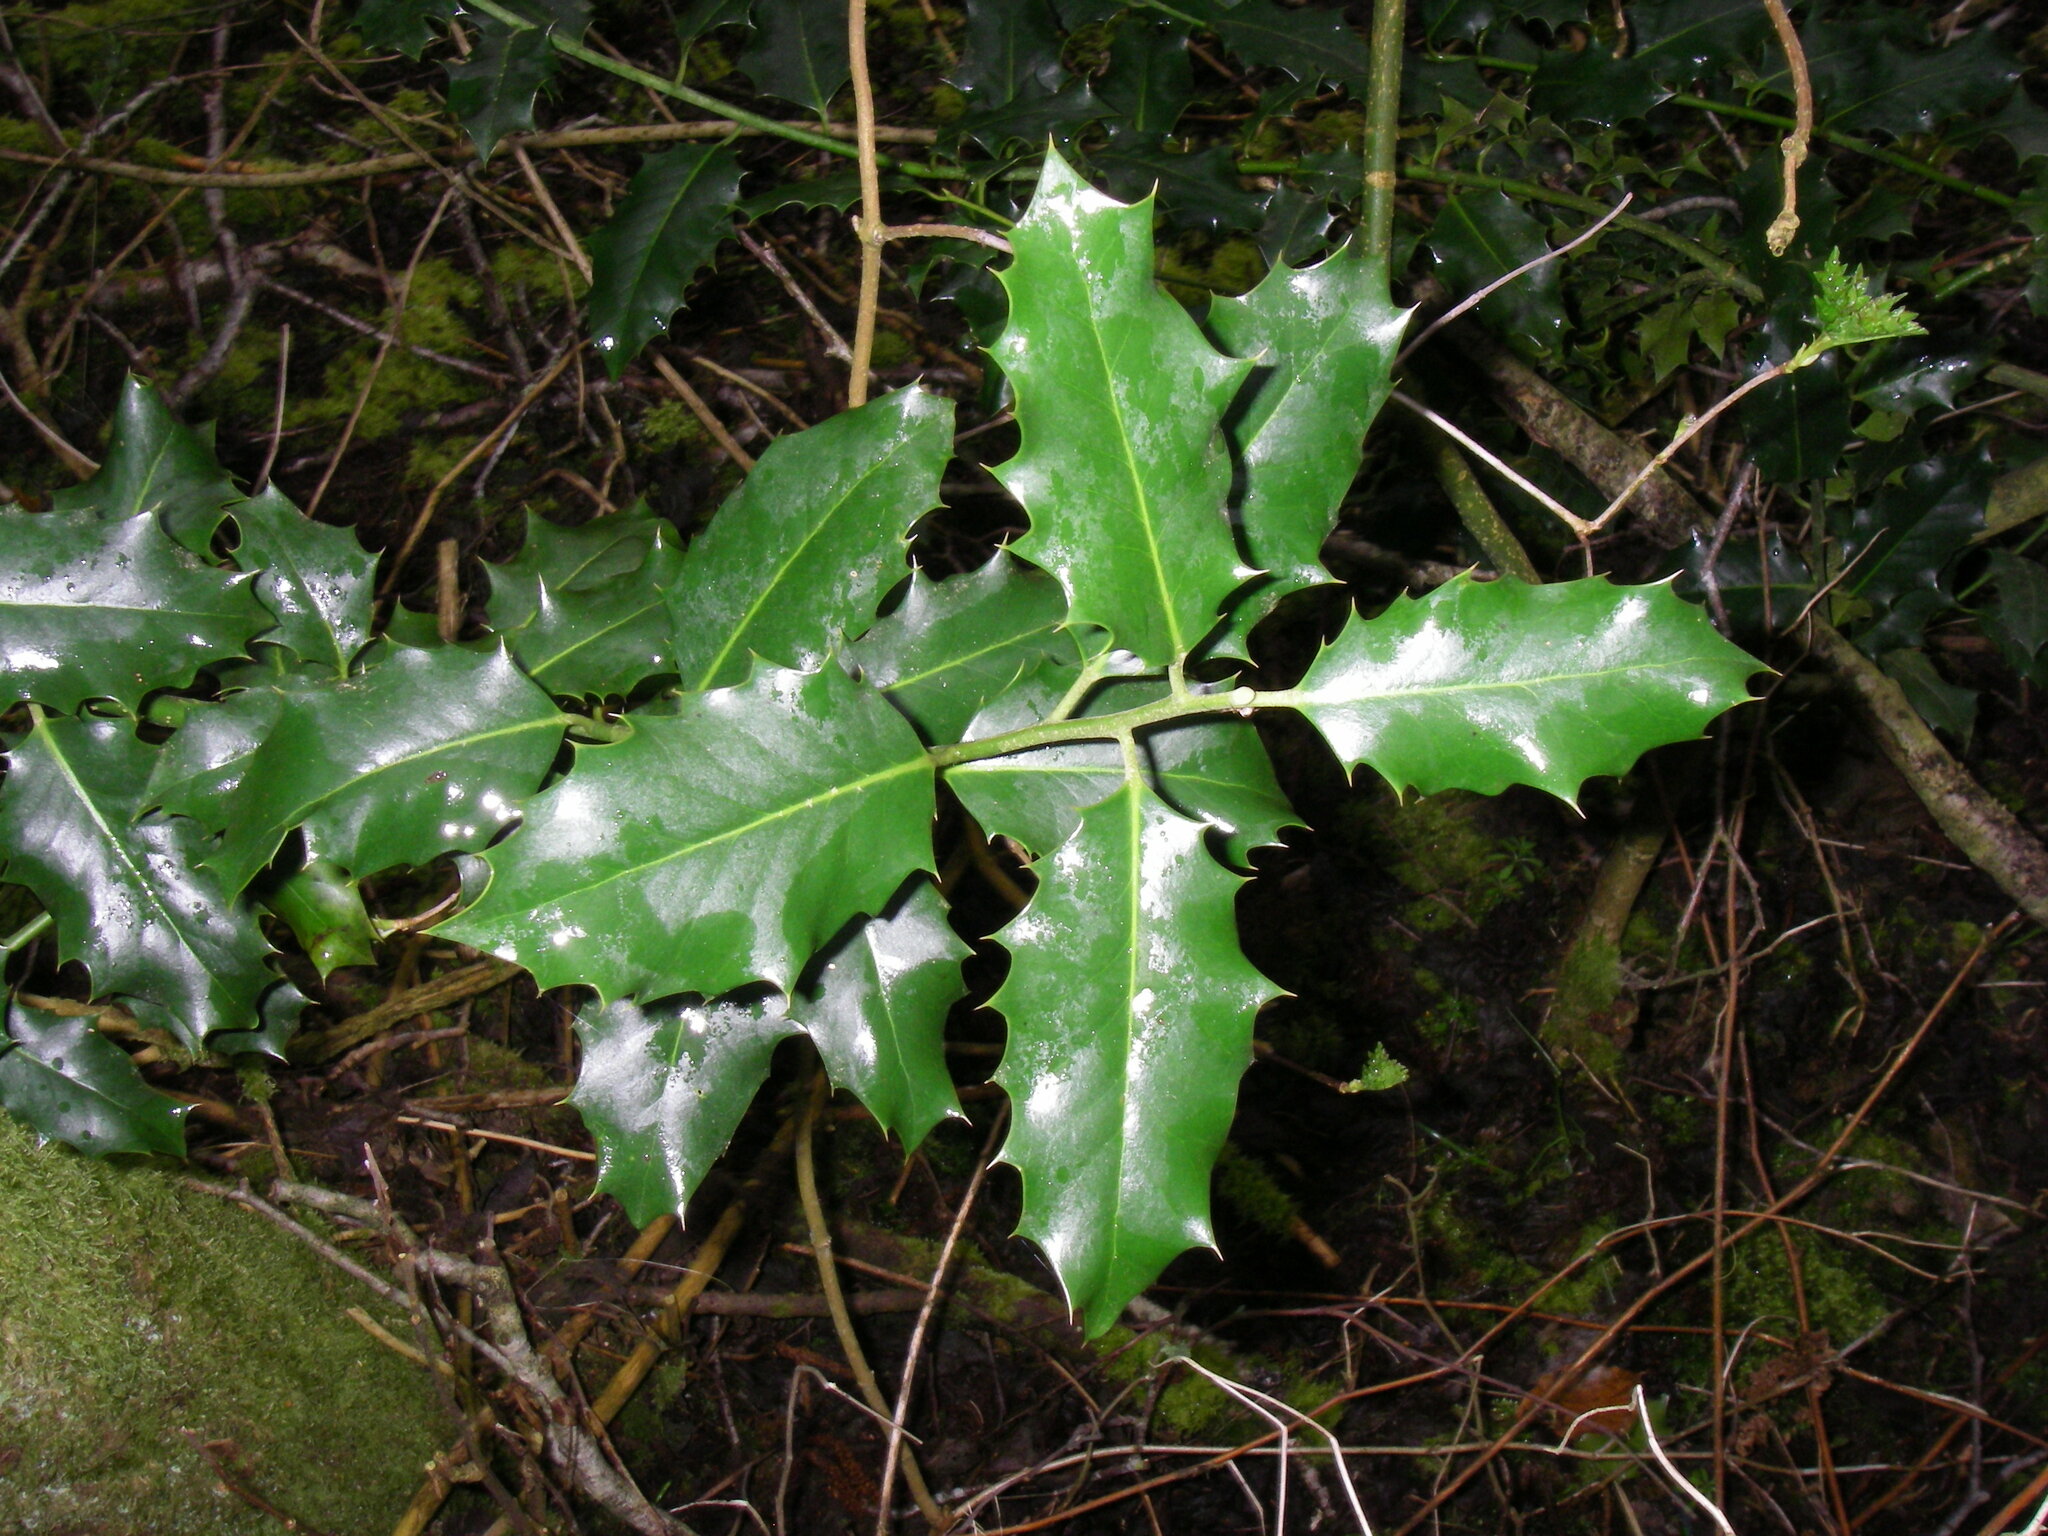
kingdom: Plantae
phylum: Tracheophyta
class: Magnoliopsida
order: Aquifoliales
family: Aquifoliaceae
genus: Ilex
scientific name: Ilex aquifolium
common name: English holly
